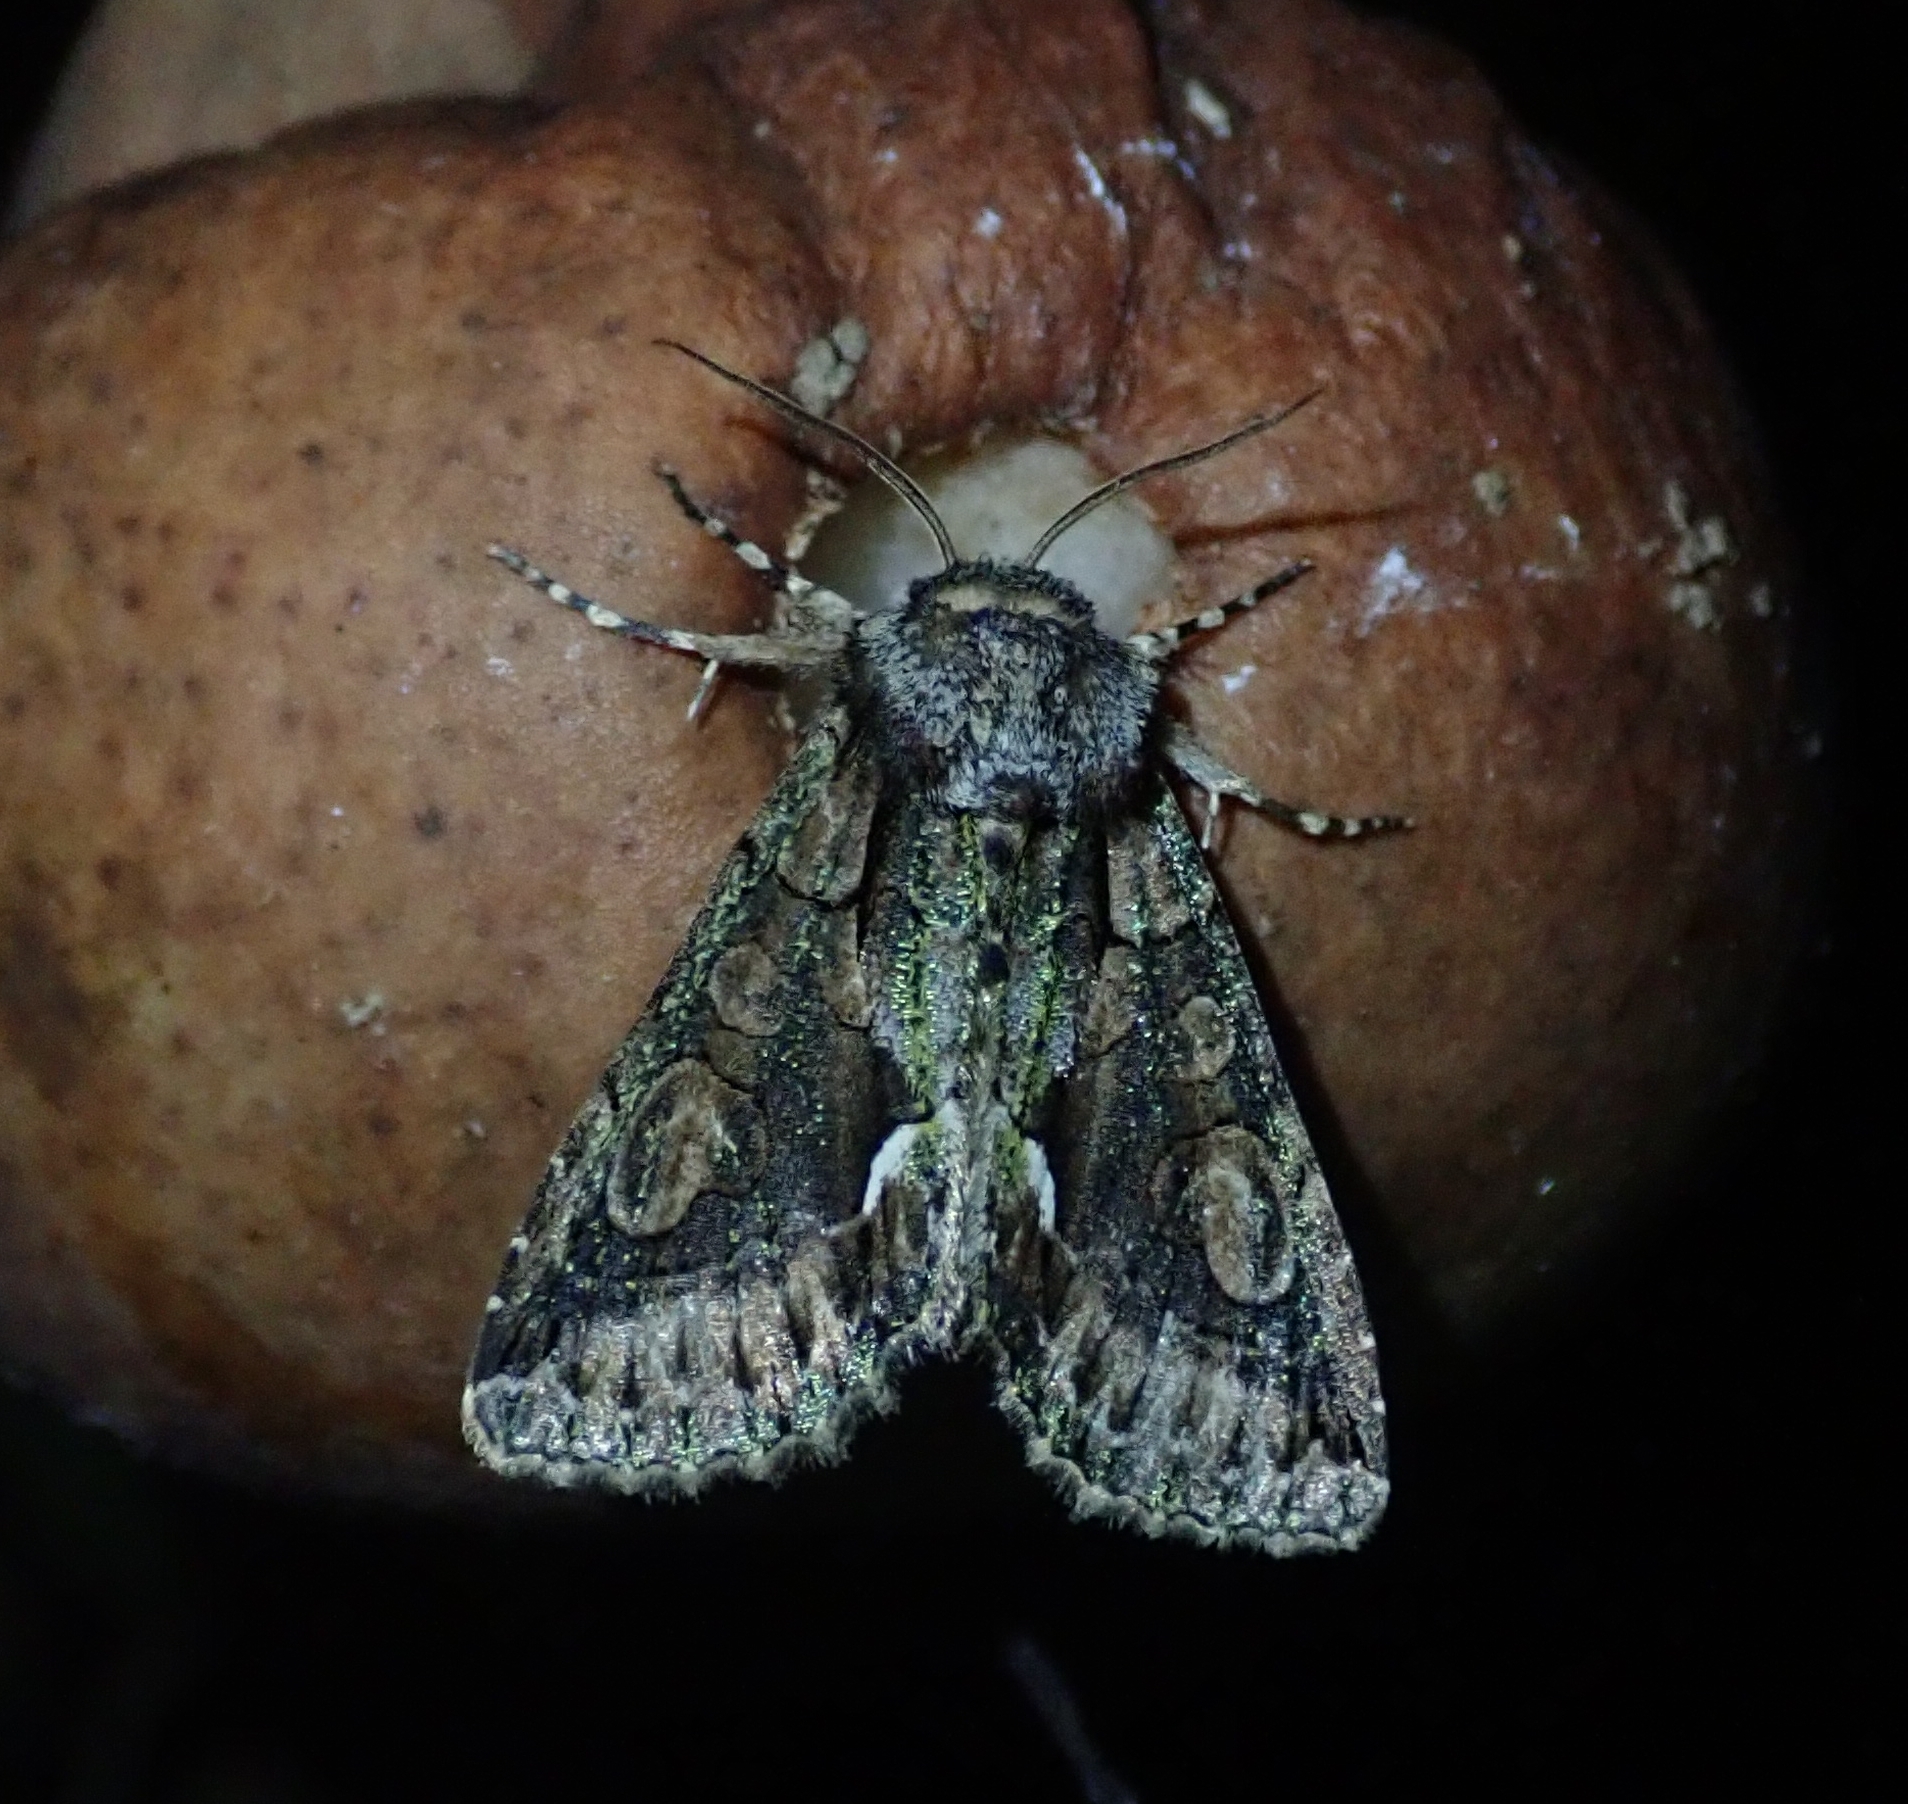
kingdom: Animalia
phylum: Arthropoda
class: Insecta
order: Lepidoptera
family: Noctuidae
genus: Allophyes
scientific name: Allophyes oxyacanthae
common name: Green-brindled crescent
